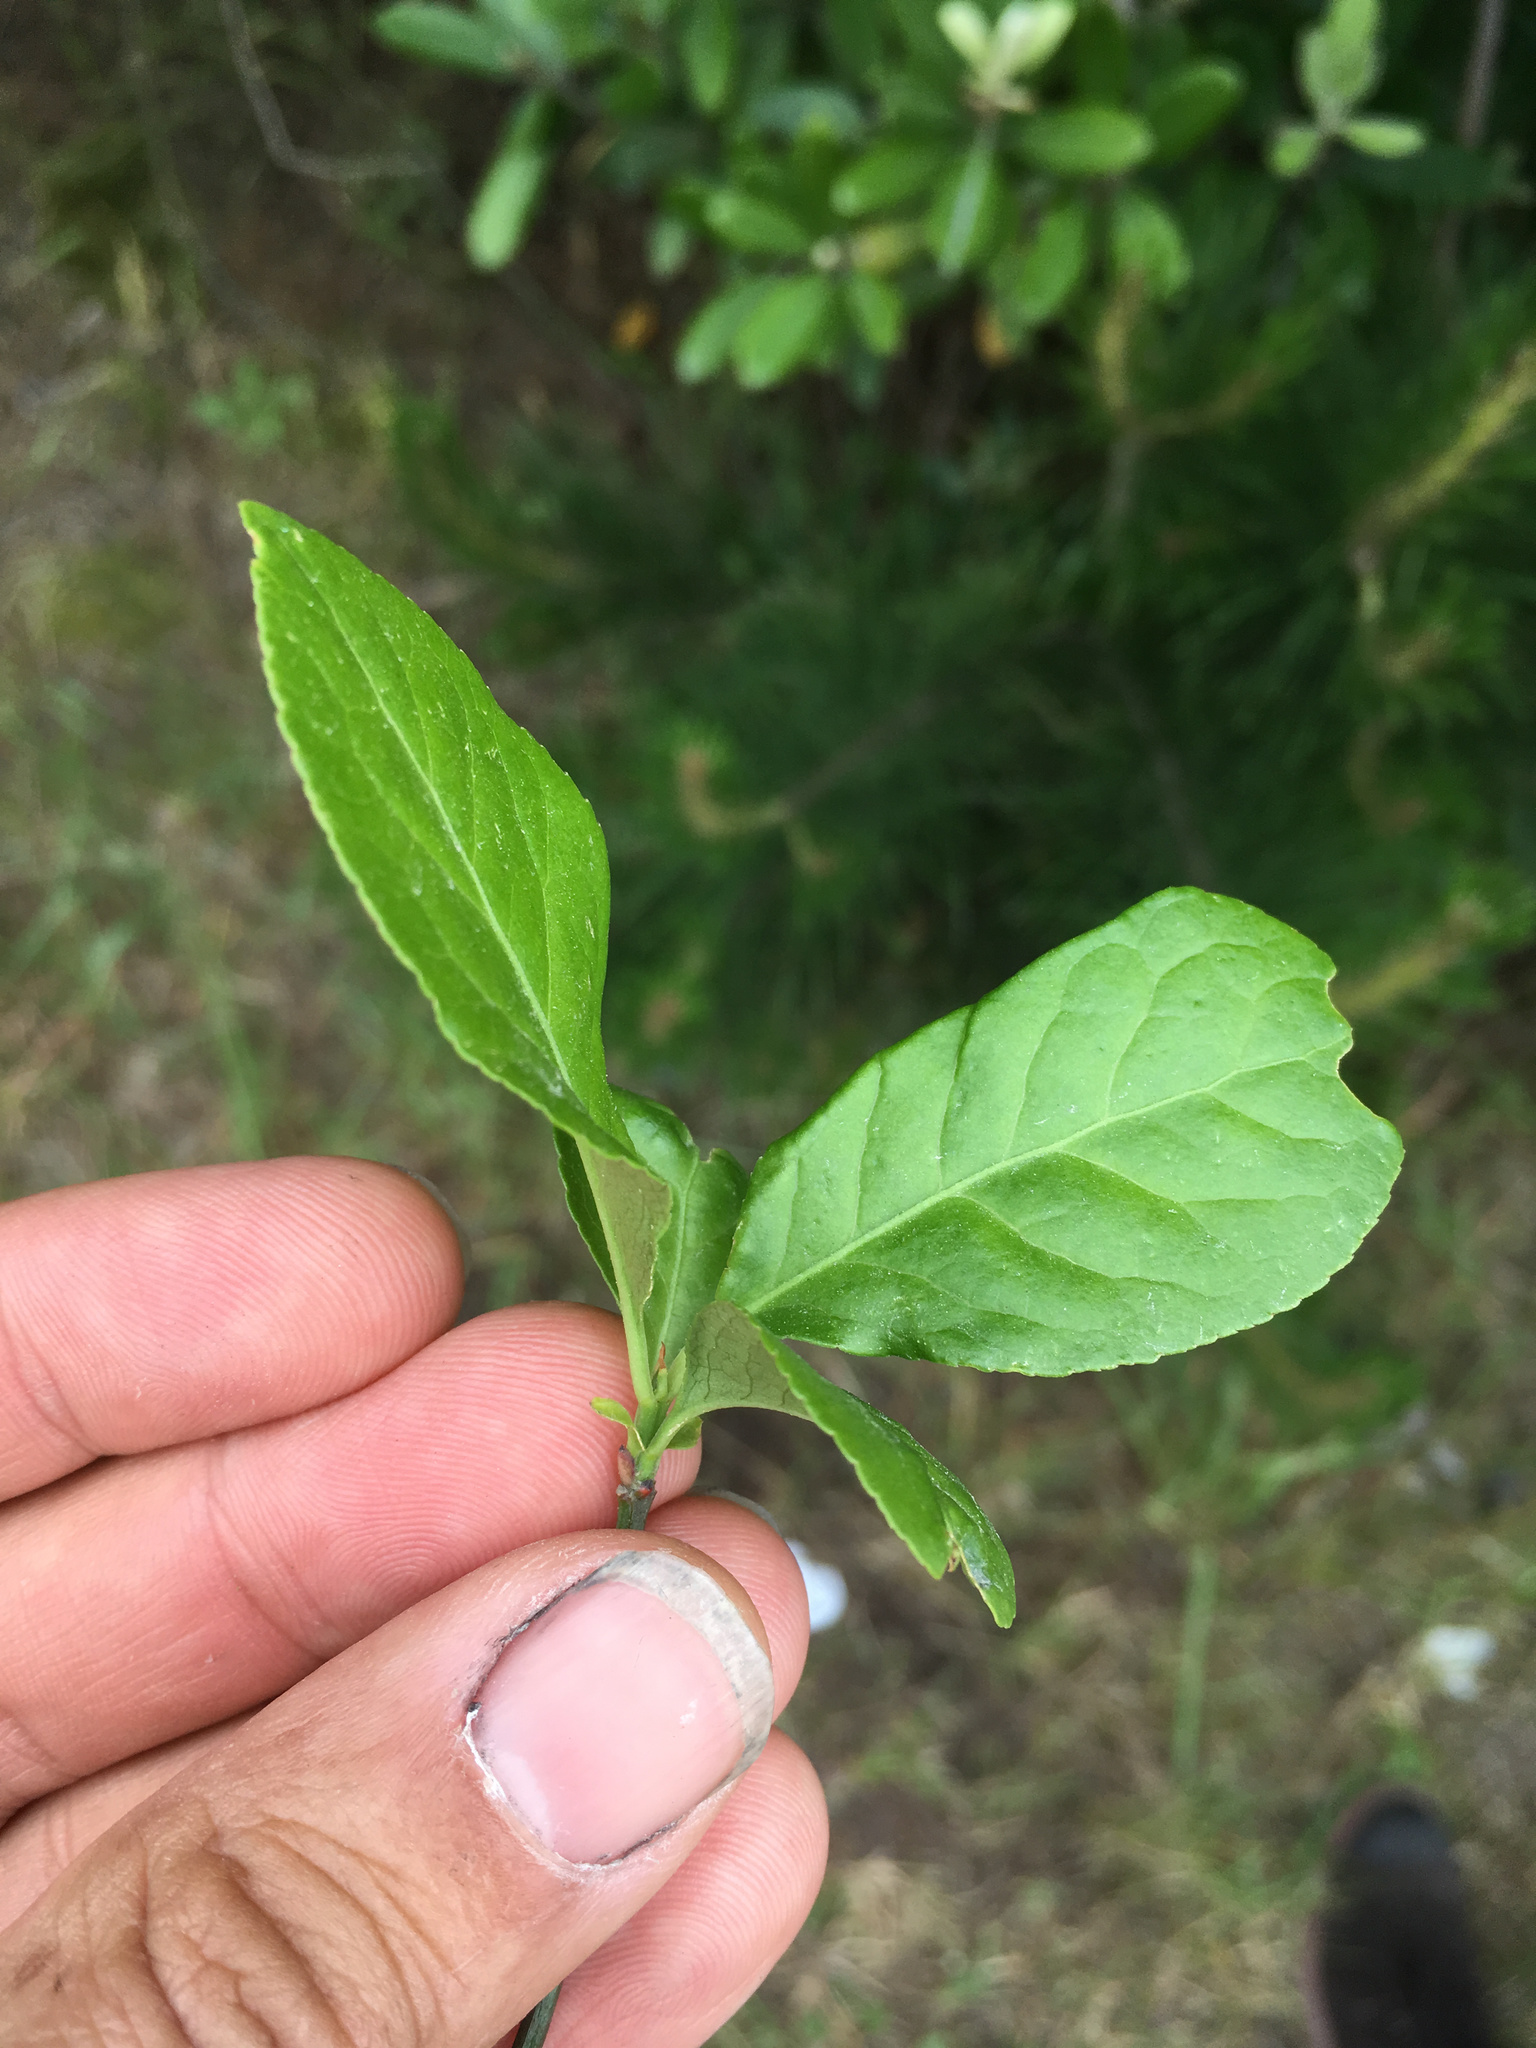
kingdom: Plantae
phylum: Tracheophyta
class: Magnoliopsida
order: Celastrales
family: Celastraceae
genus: Euonymus
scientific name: Euonymus europaeus
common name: Spindle
